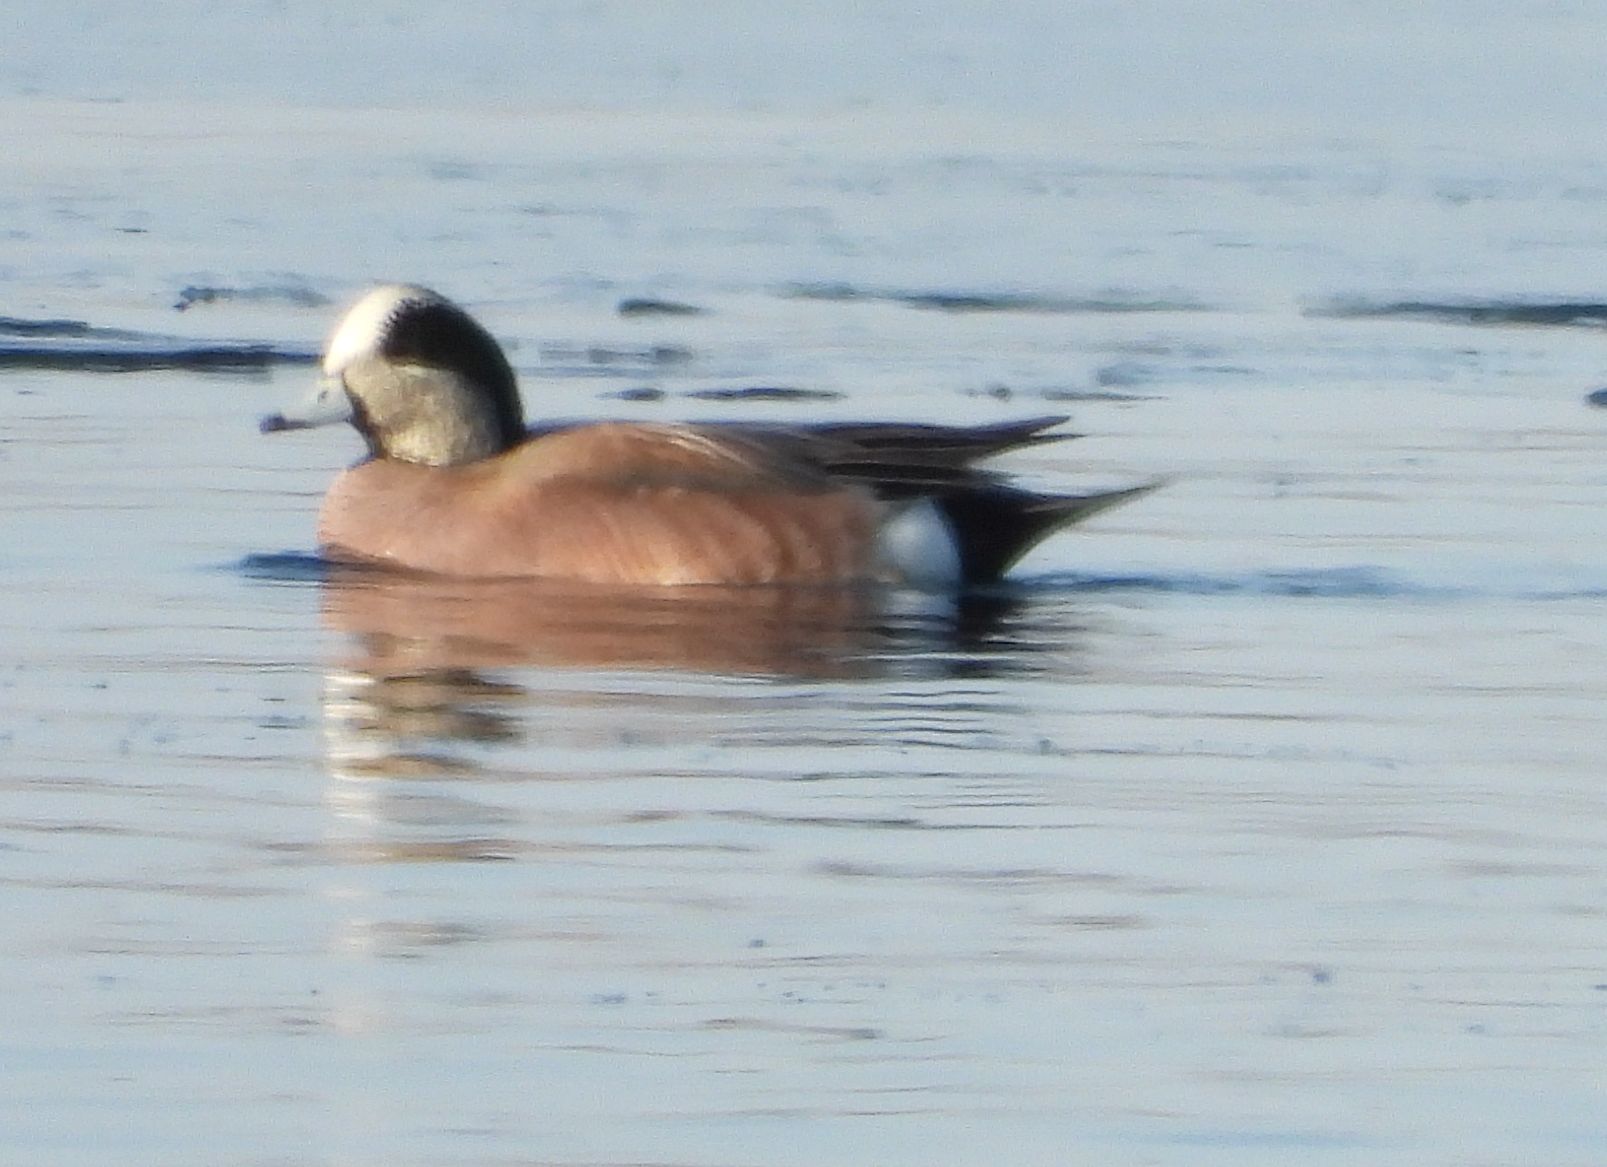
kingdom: Animalia
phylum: Chordata
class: Aves
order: Anseriformes
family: Anatidae
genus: Mareca
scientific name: Mareca americana
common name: American wigeon
